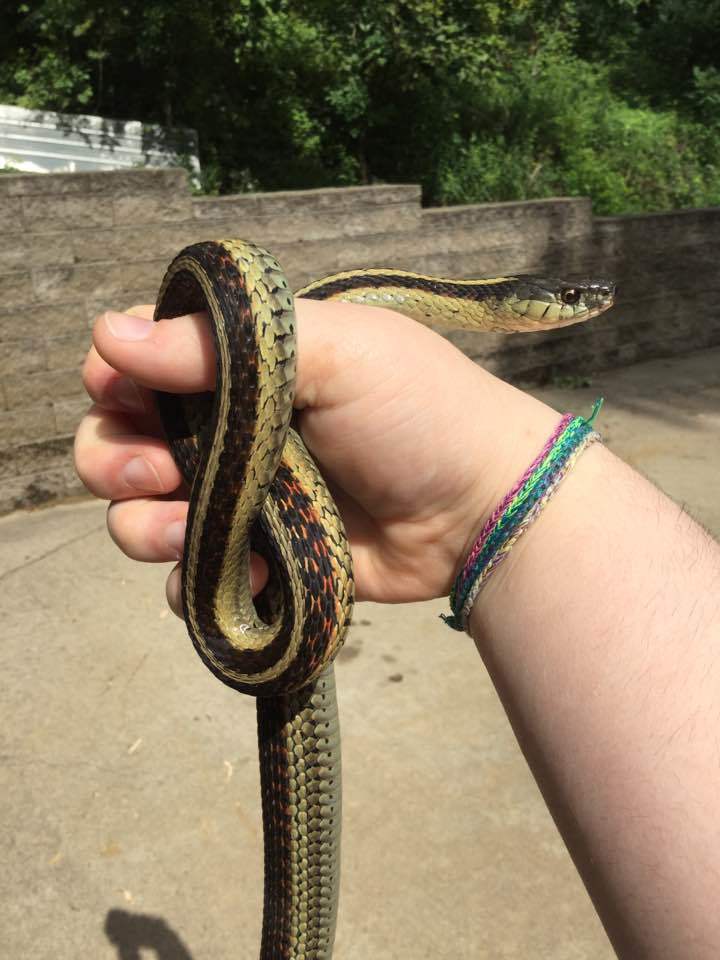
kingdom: Animalia
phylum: Chordata
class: Squamata
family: Colubridae
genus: Thamnophis
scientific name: Thamnophis sirtalis
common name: Common garter snake
